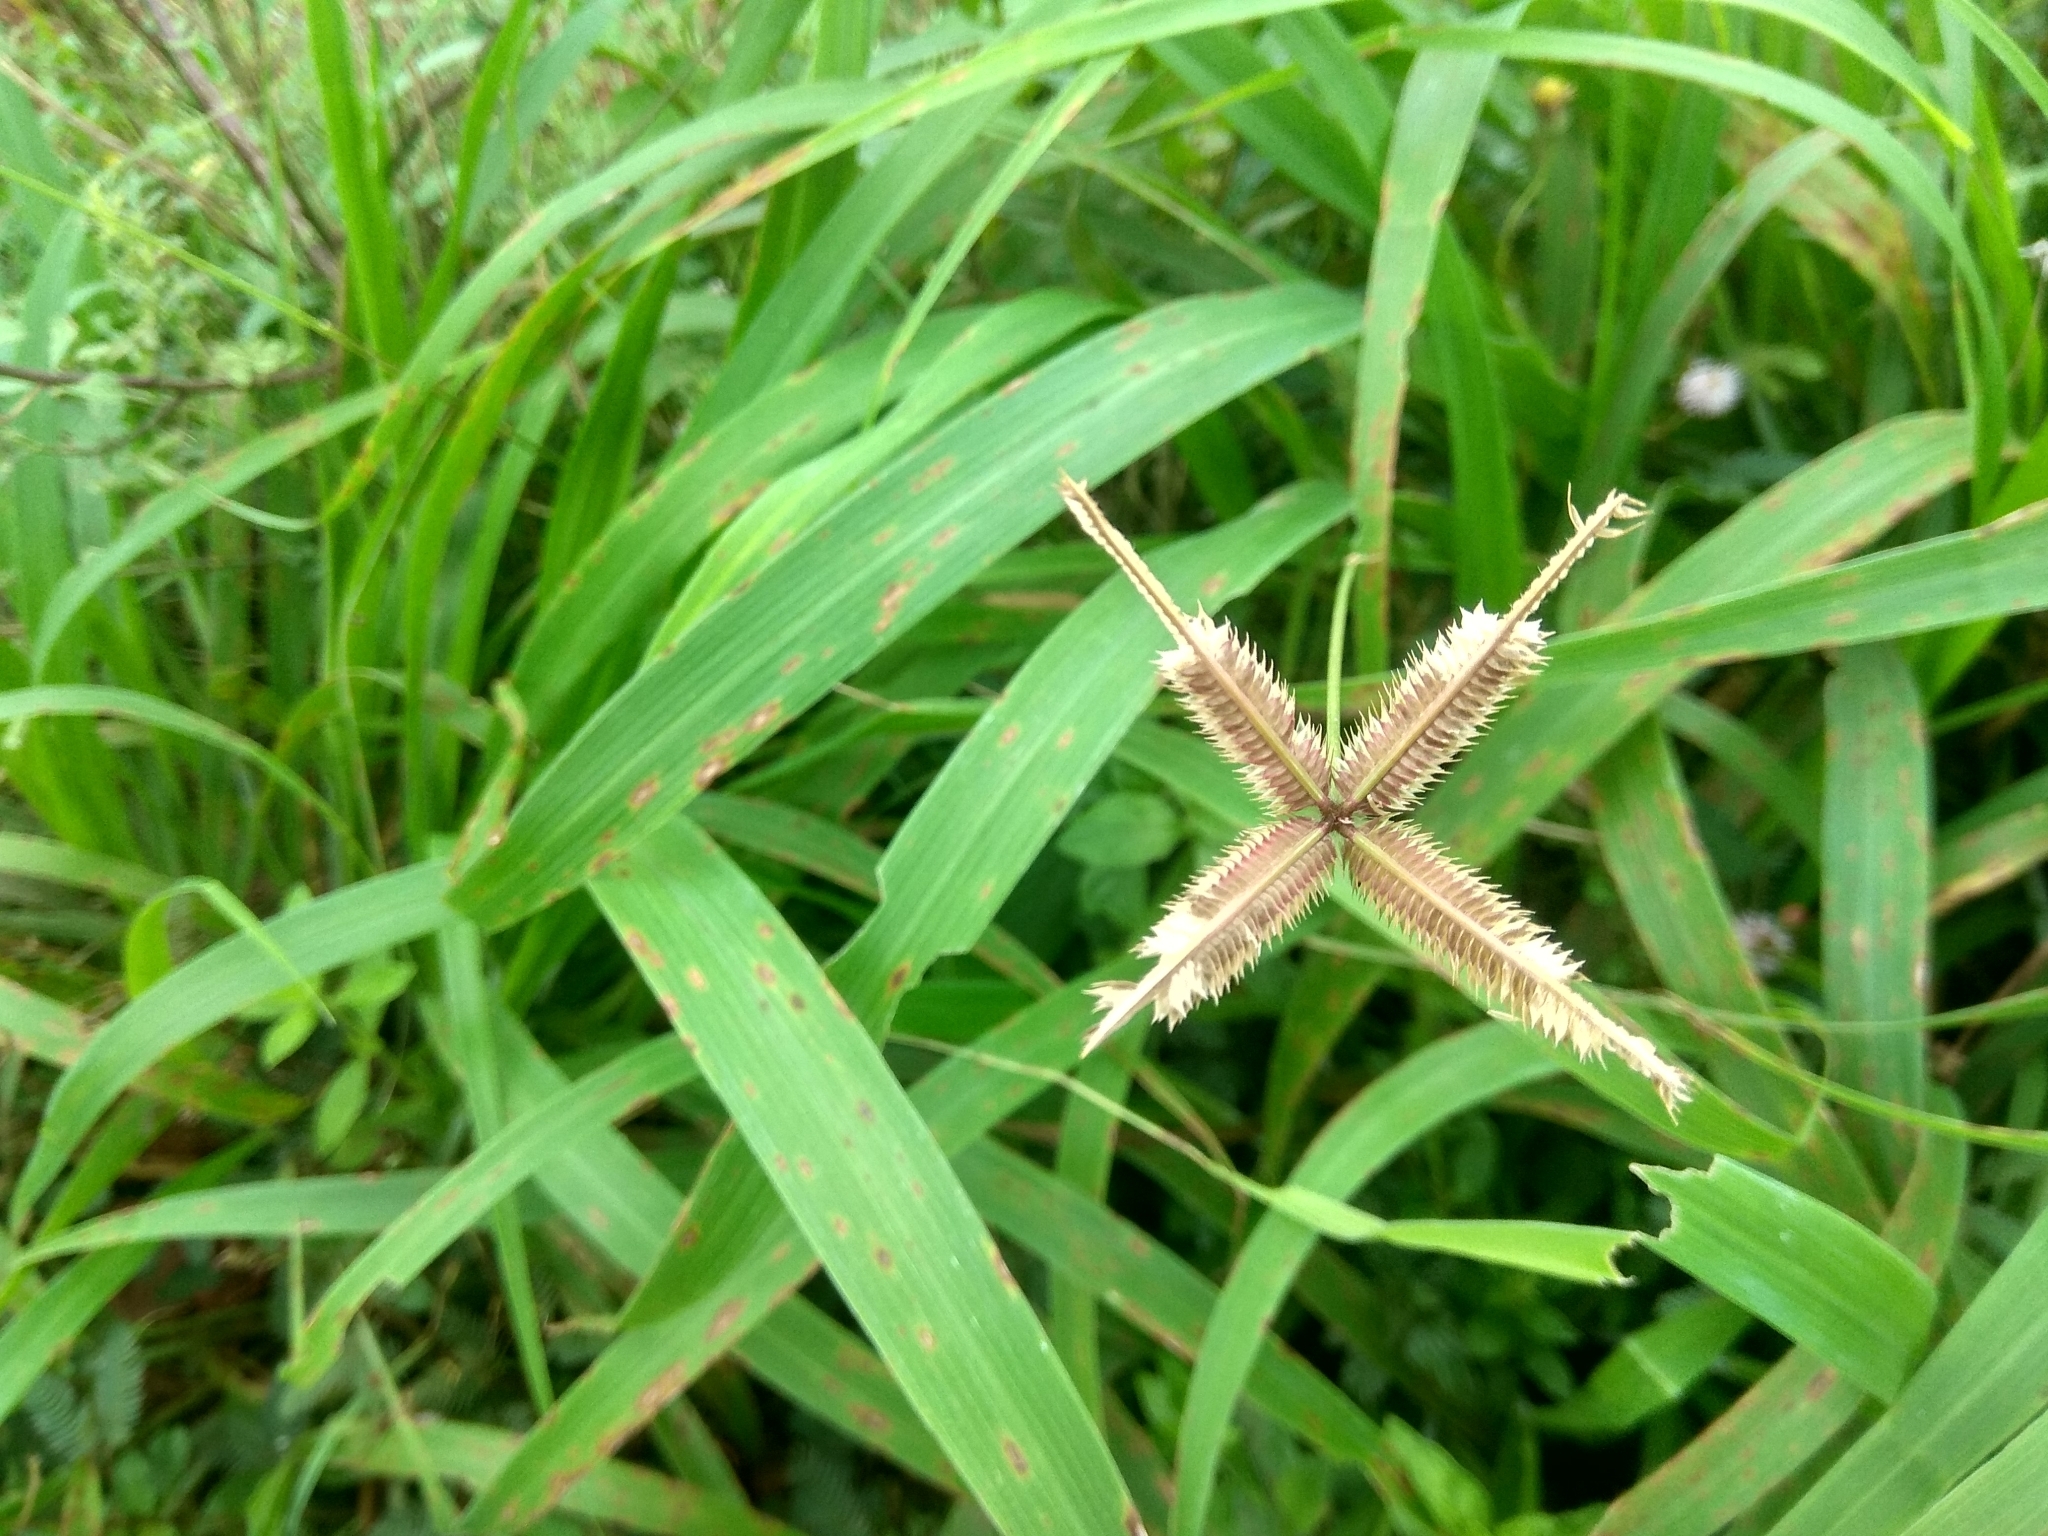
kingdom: Plantae
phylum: Tracheophyta
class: Liliopsida
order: Poales
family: Poaceae
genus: Dactyloctenium
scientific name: Dactyloctenium aegyptium
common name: Egyptian grass
